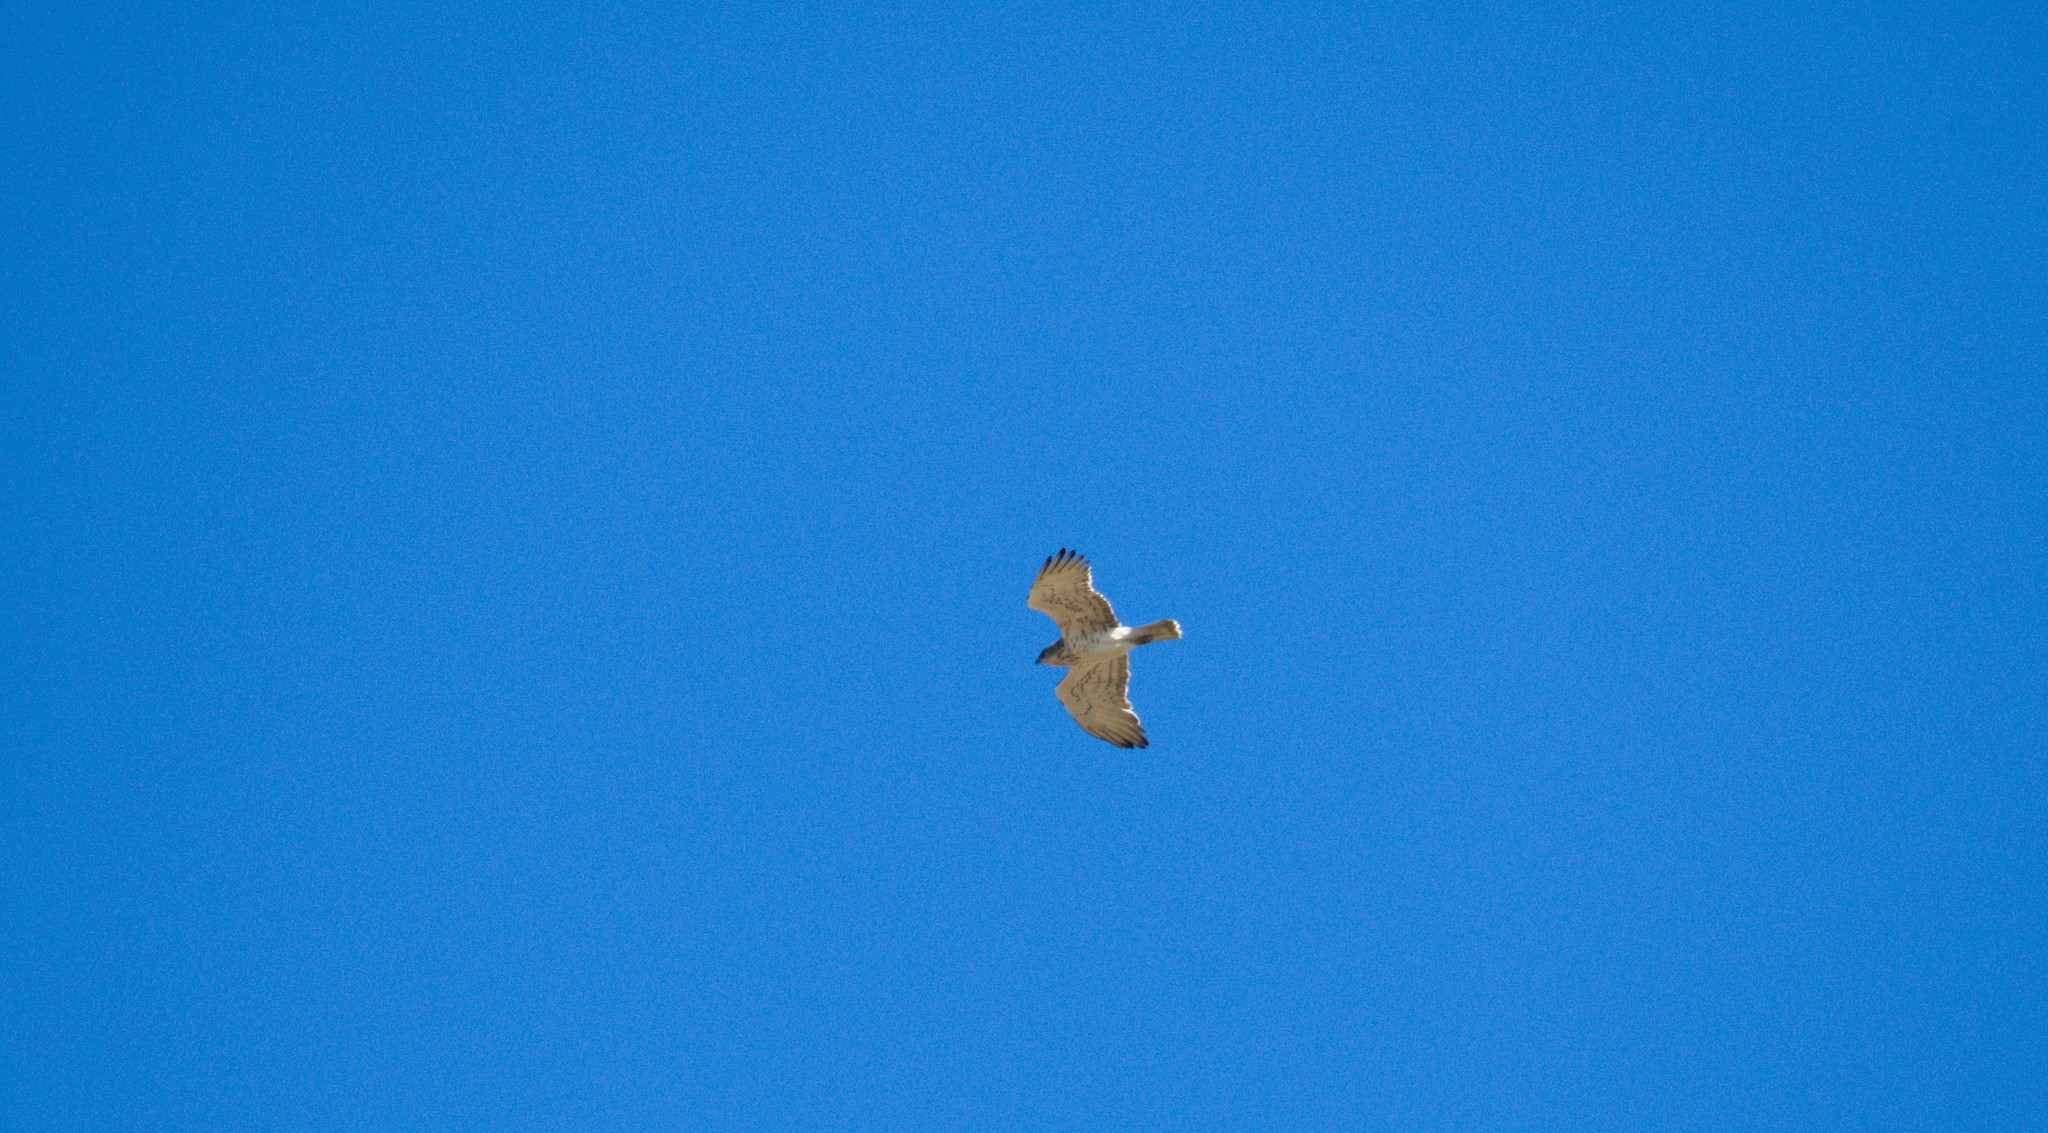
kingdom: Animalia
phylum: Chordata
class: Aves
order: Accipitriformes
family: Accipitridae
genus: Circaetus
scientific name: Circaetus gallicus
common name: Short-toed snake eagle
